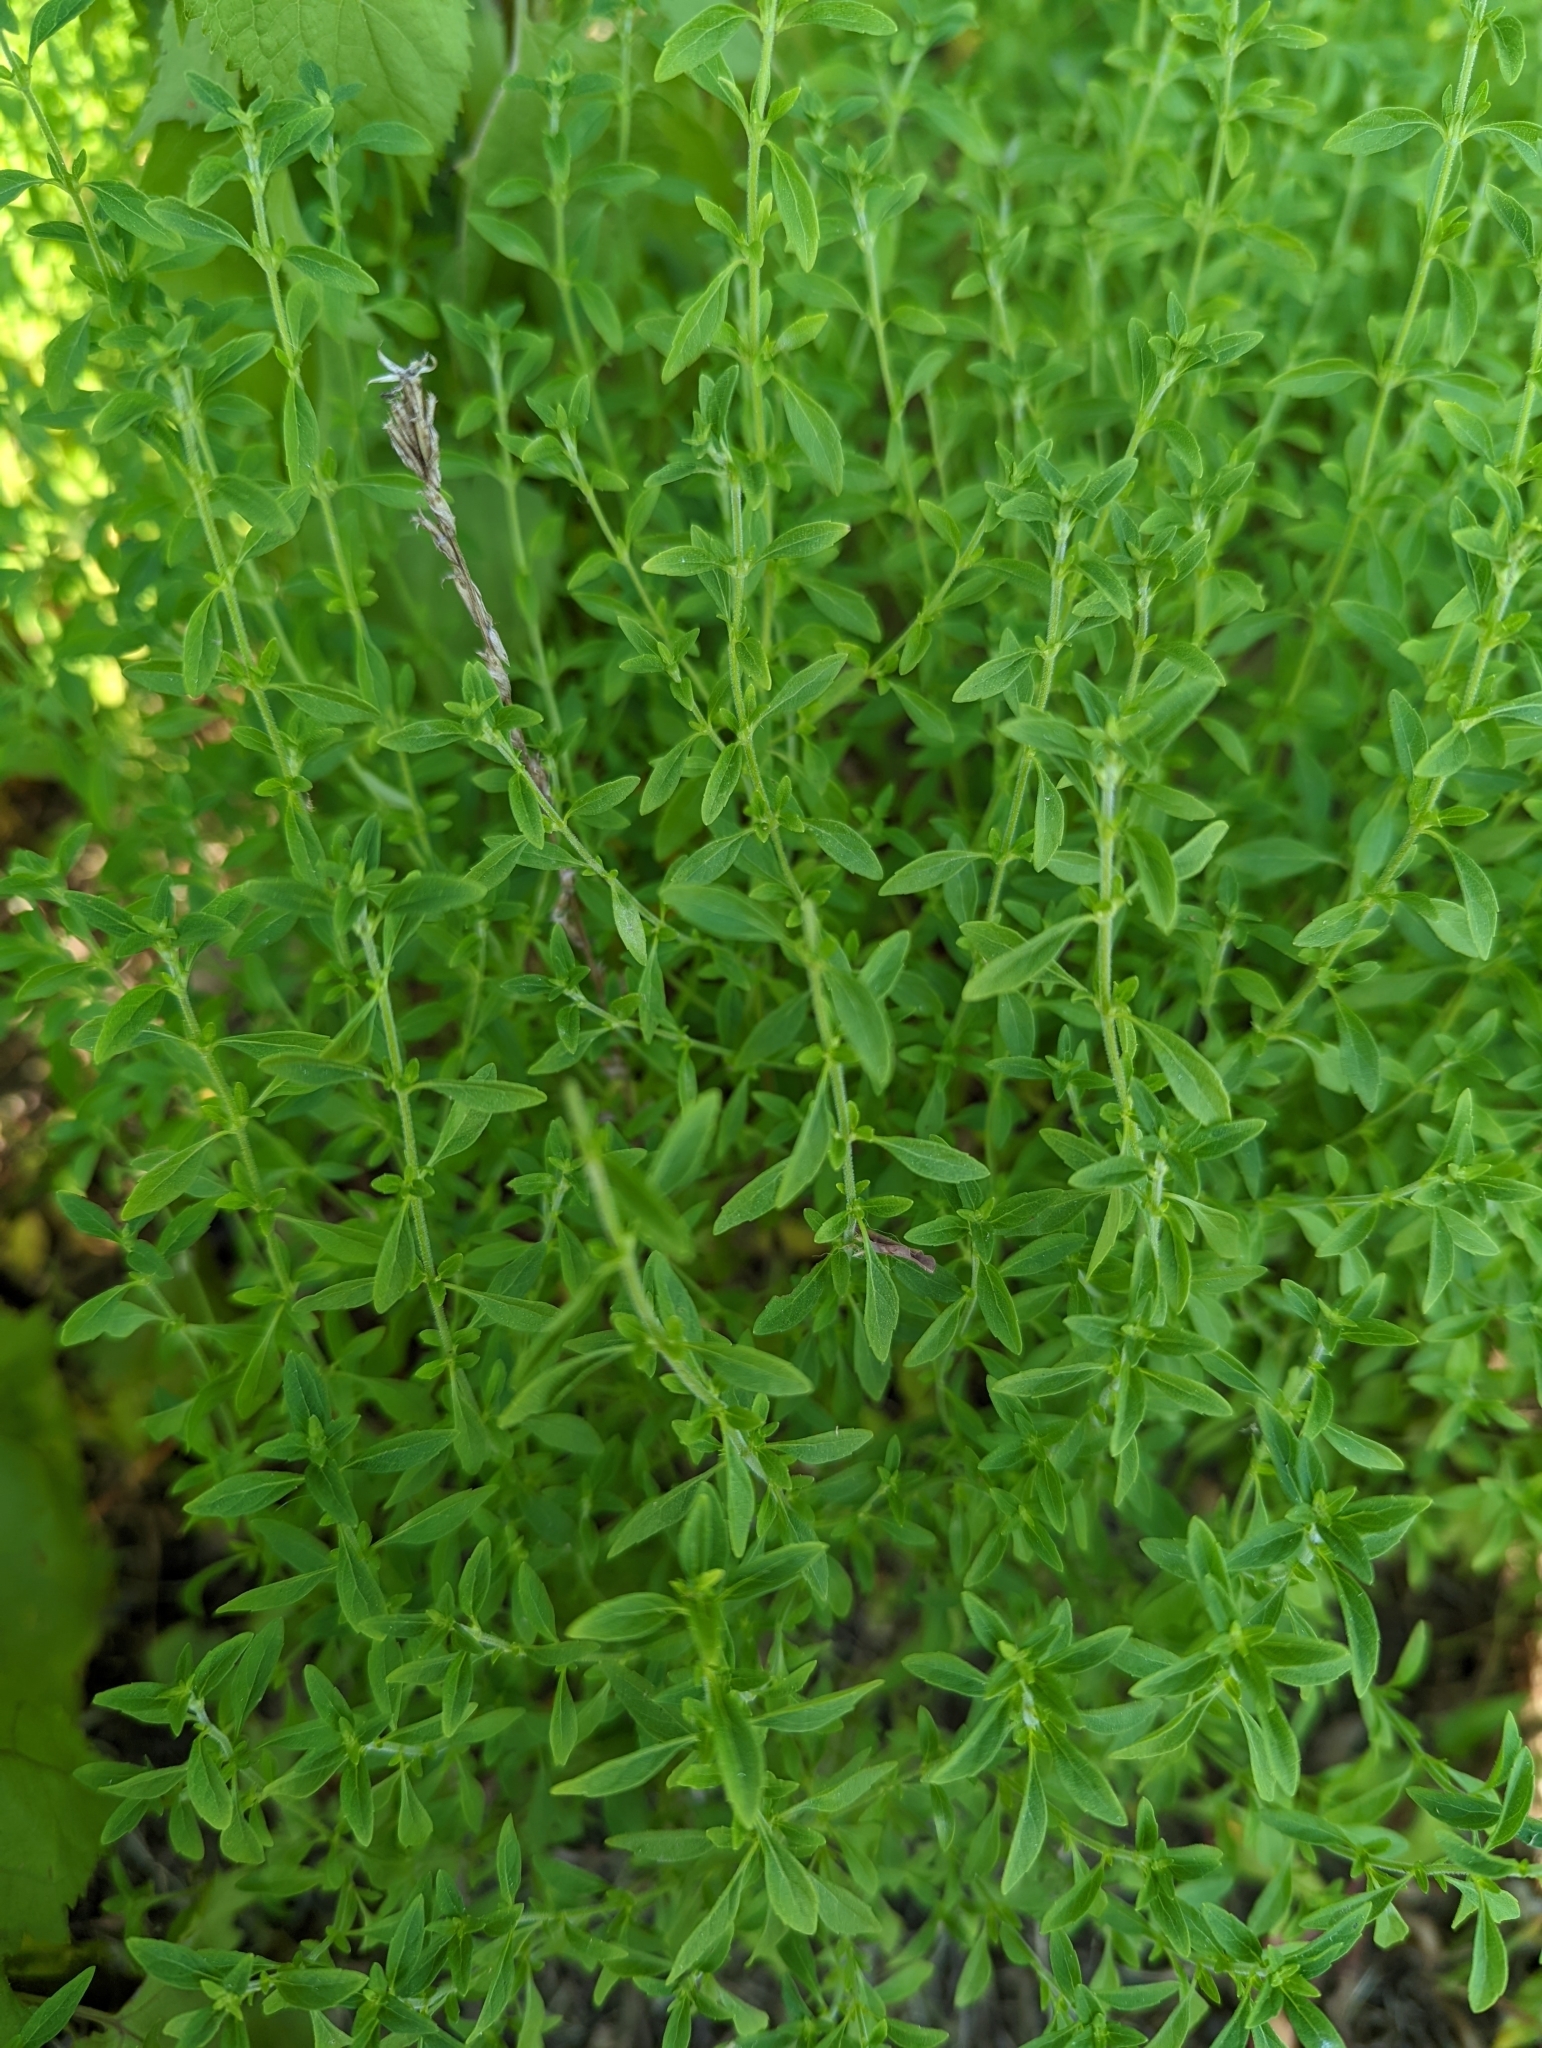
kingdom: Plantae
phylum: Tracheophyta
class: Magnoliopsida
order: Lamiales
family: Lamiaceae
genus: Hedeoma
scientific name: Hedeoma pulegioides
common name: American false pennyroyal
